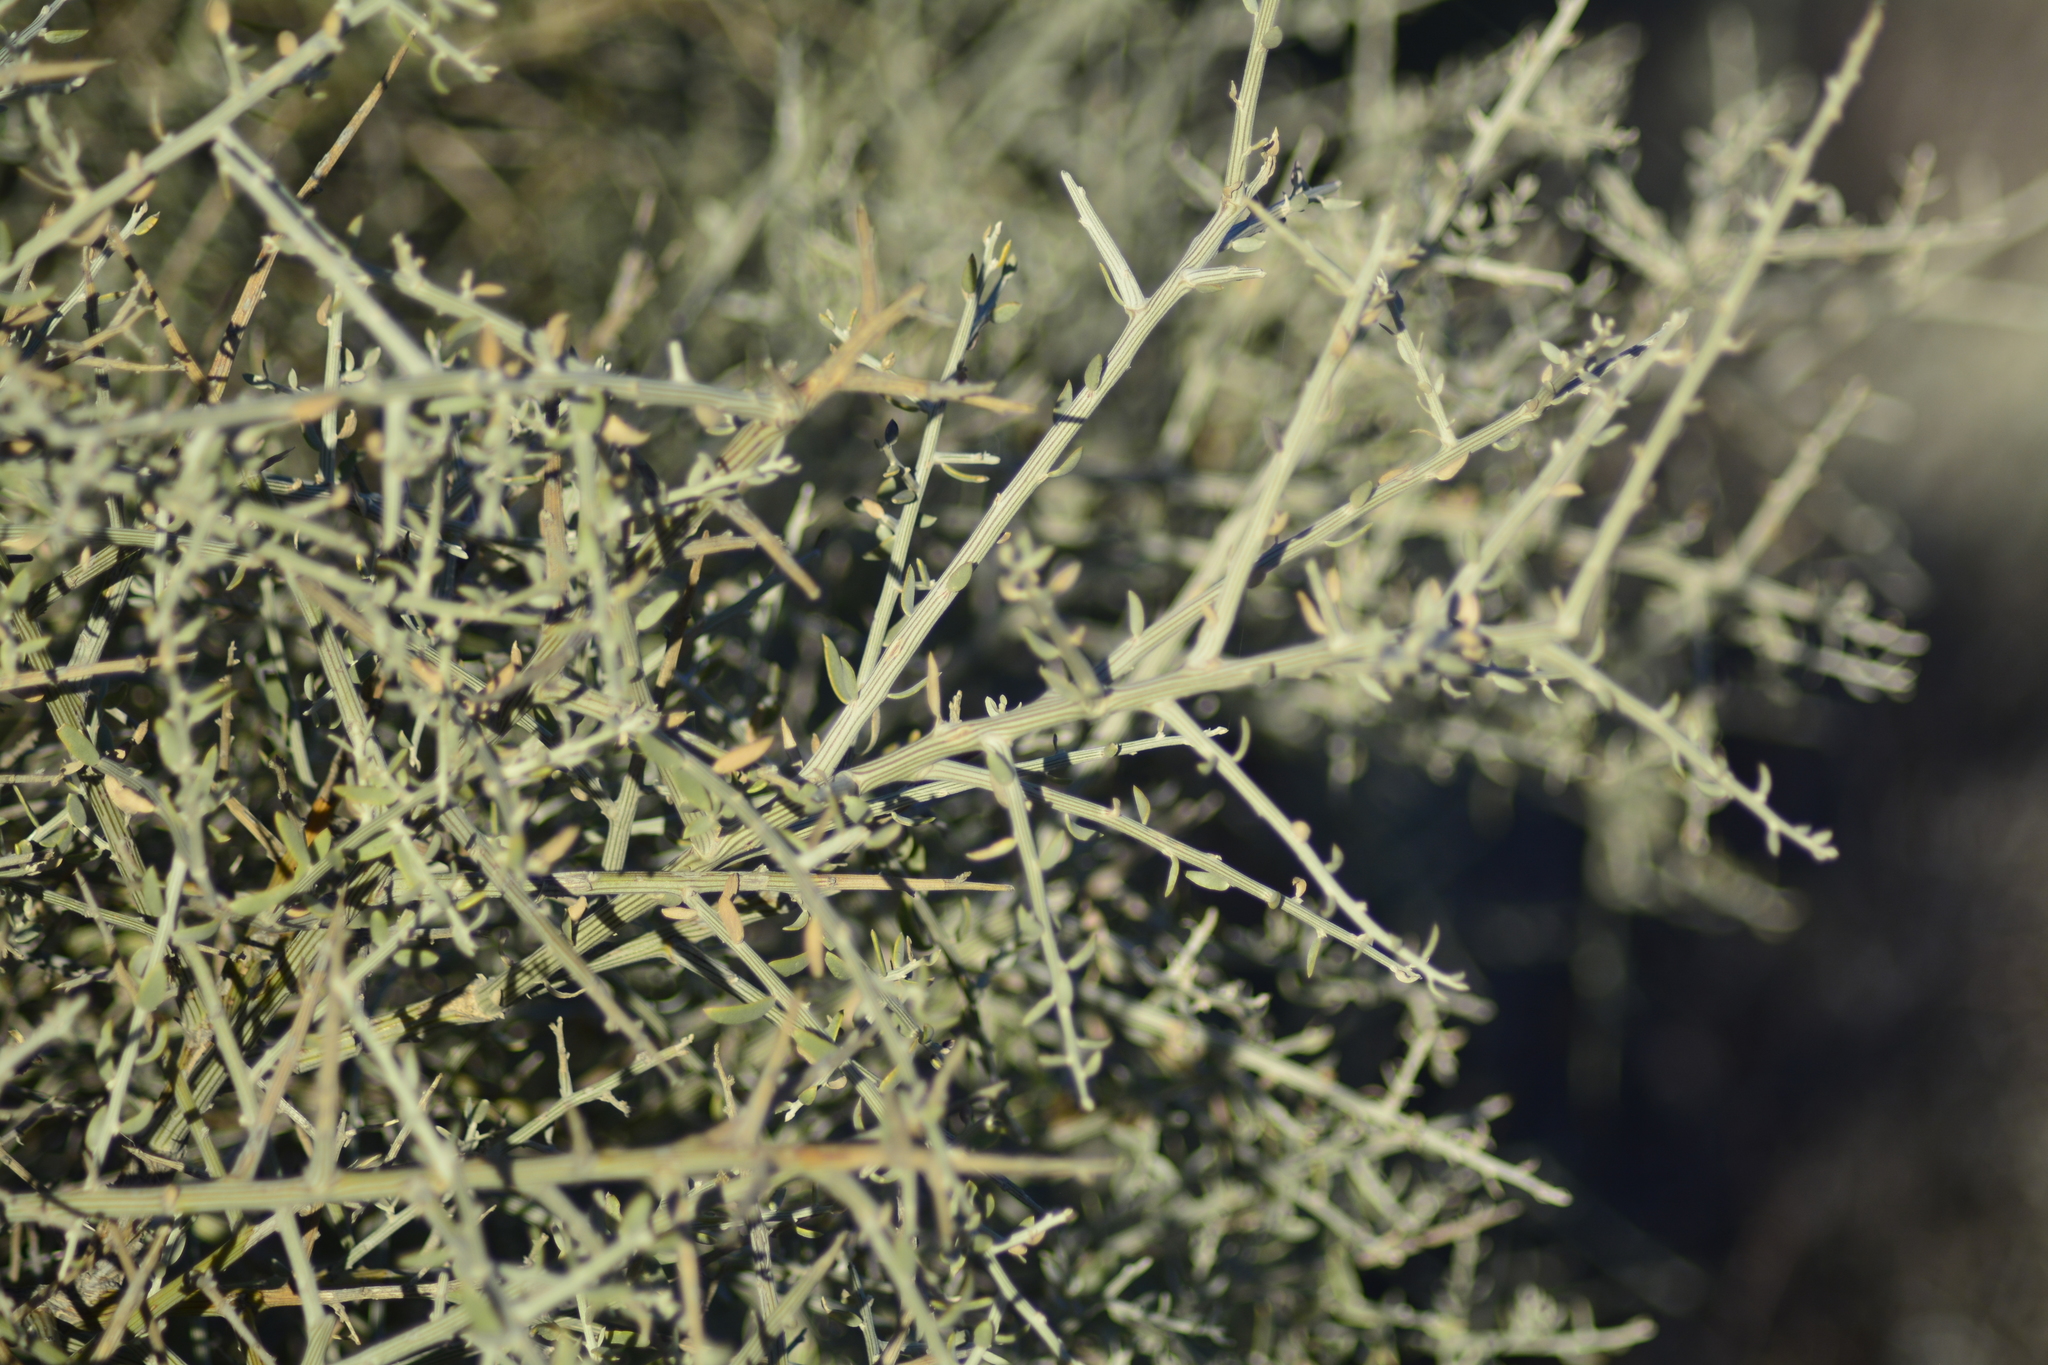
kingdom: Plantae
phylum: Tracheophyta
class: Magnoliopsida
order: Asterales
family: Asteraceae
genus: Cyclolepis
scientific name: Cyclolepis genistoides
